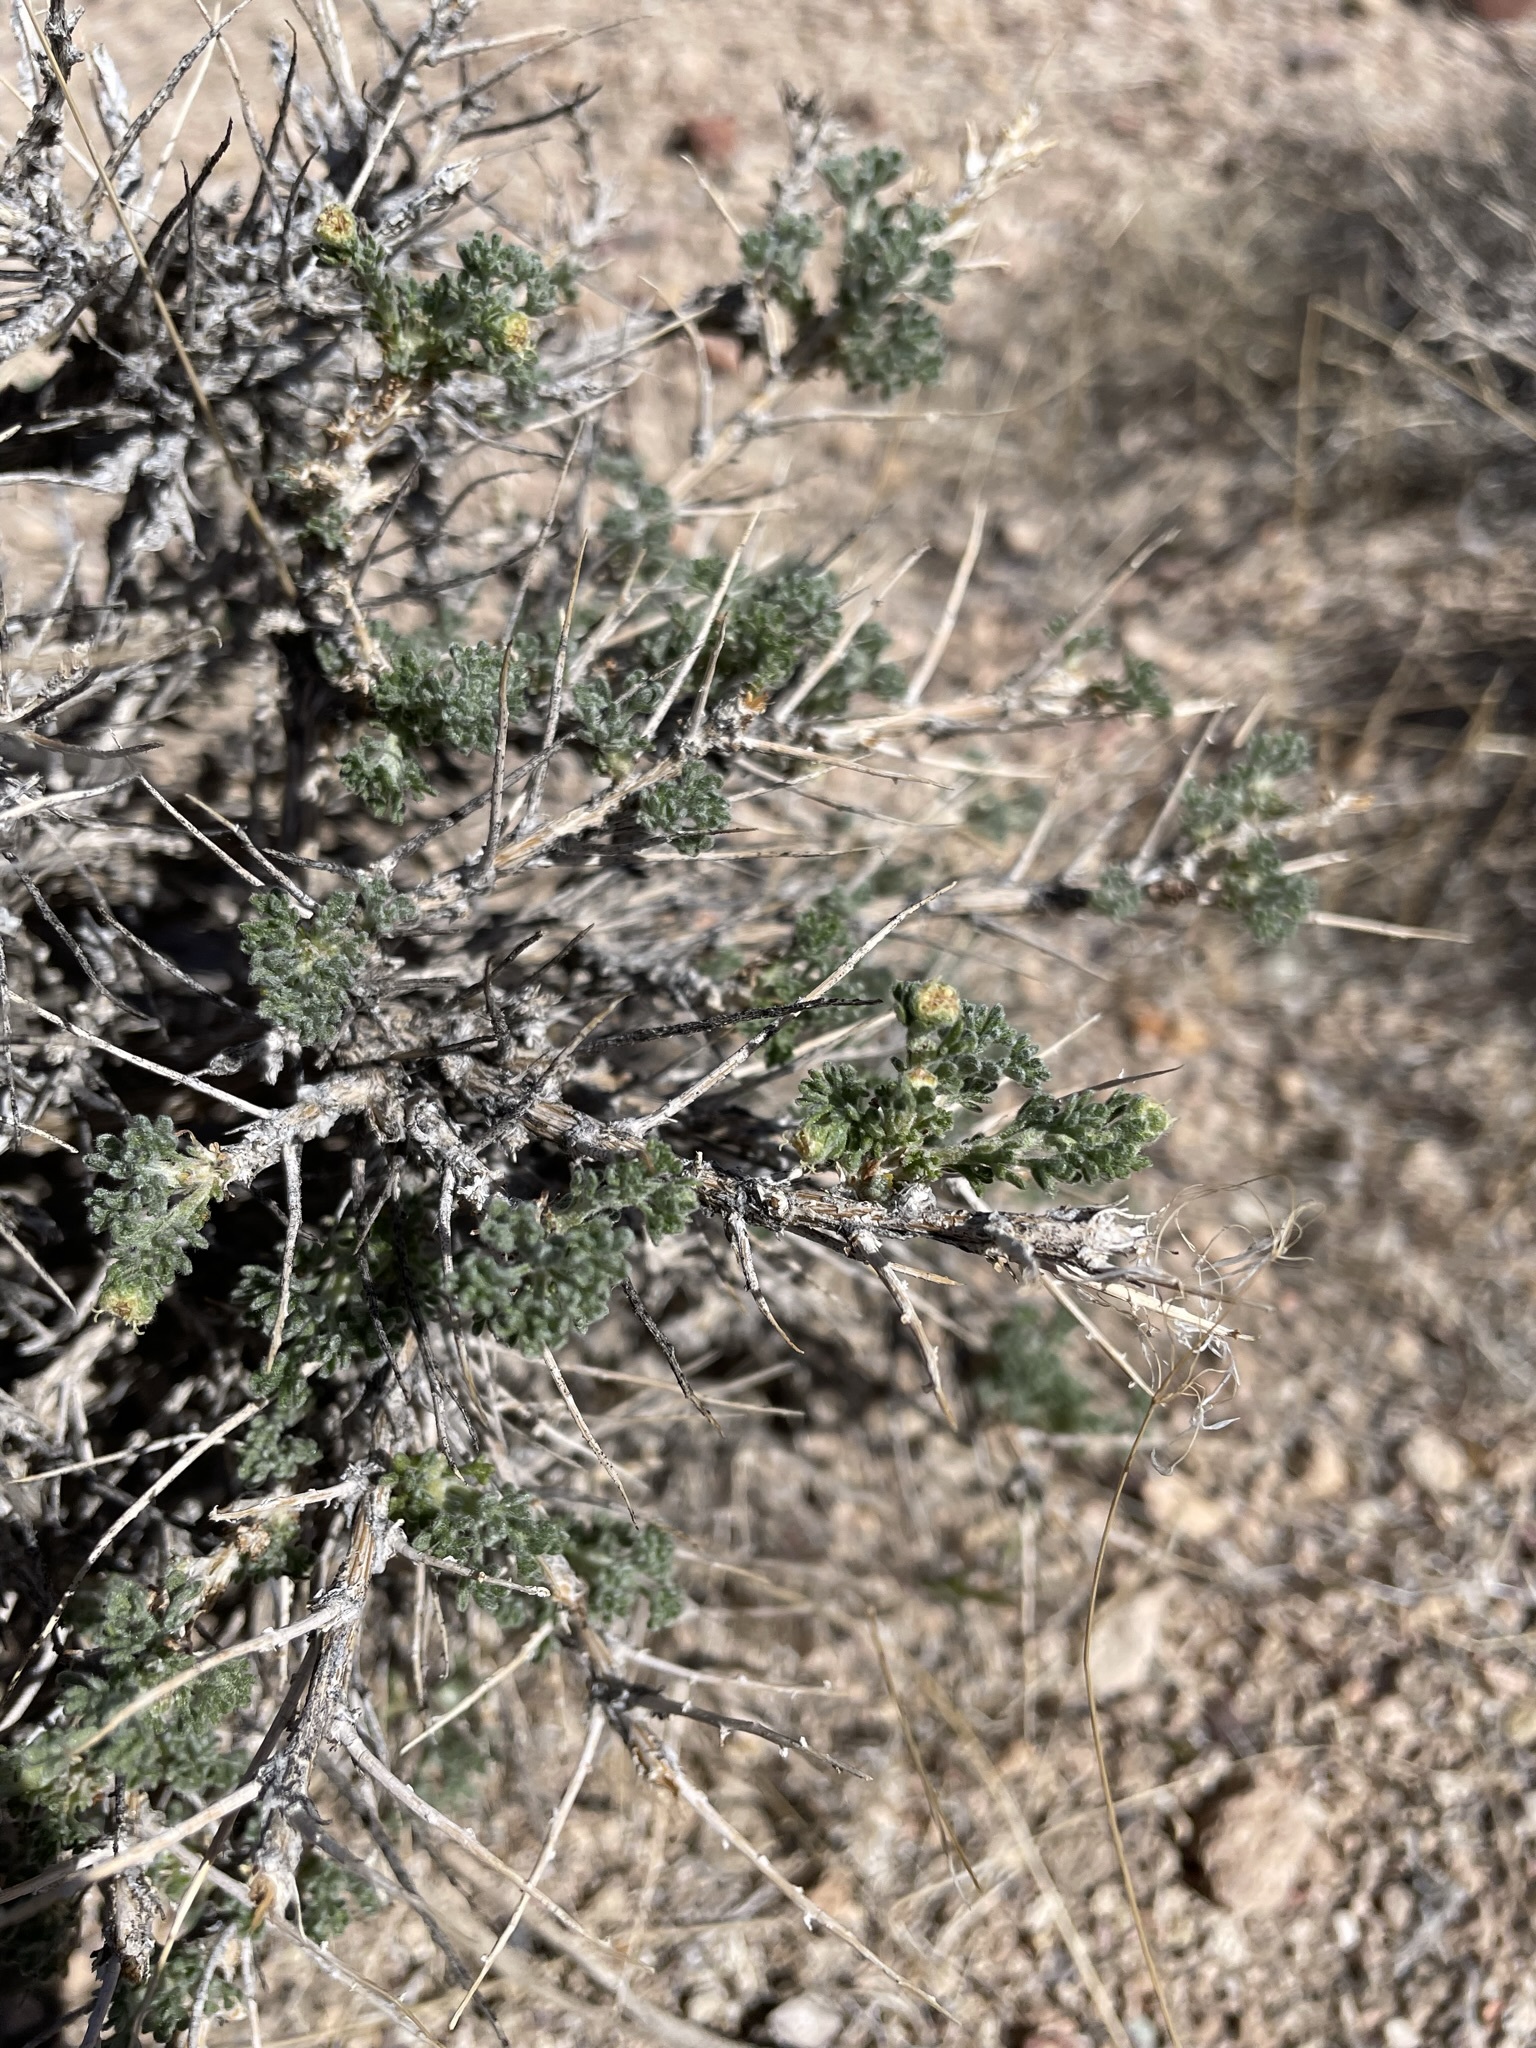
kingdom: Plantae
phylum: Tracheophyta
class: Magnoliopsida
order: Asterales
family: Asteraceae
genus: Artemisia
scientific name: Artemisia spinescens
